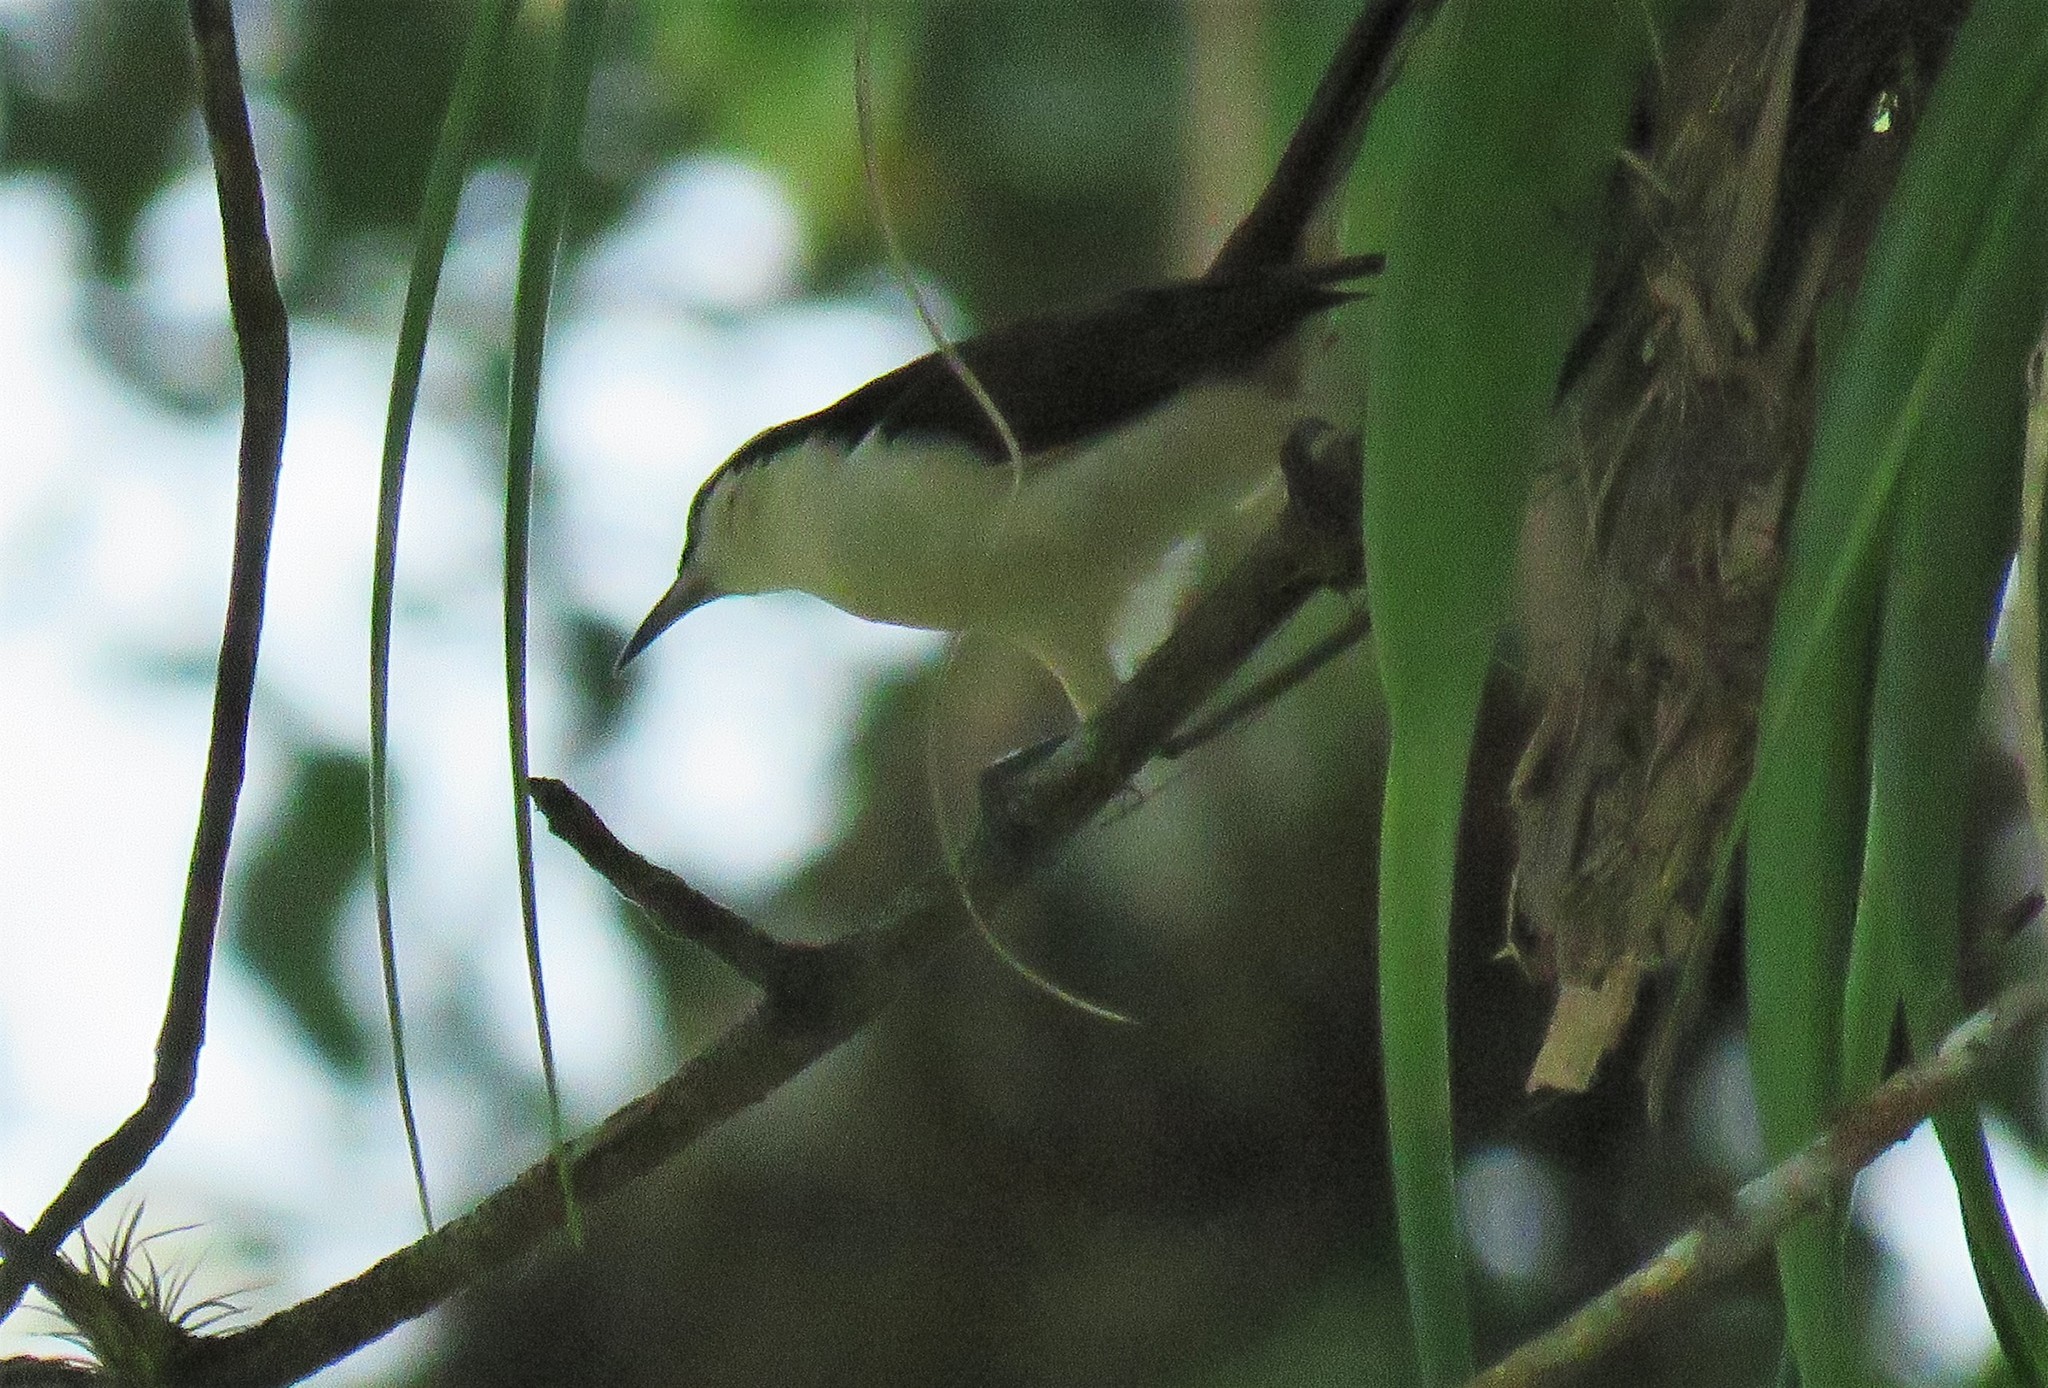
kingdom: Animalia
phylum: Chordata
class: Aves
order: Passeriformes
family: Troglodytidae
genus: Campylorhynchus
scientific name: Campylorhynchus griseus
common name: Bicolored wren
